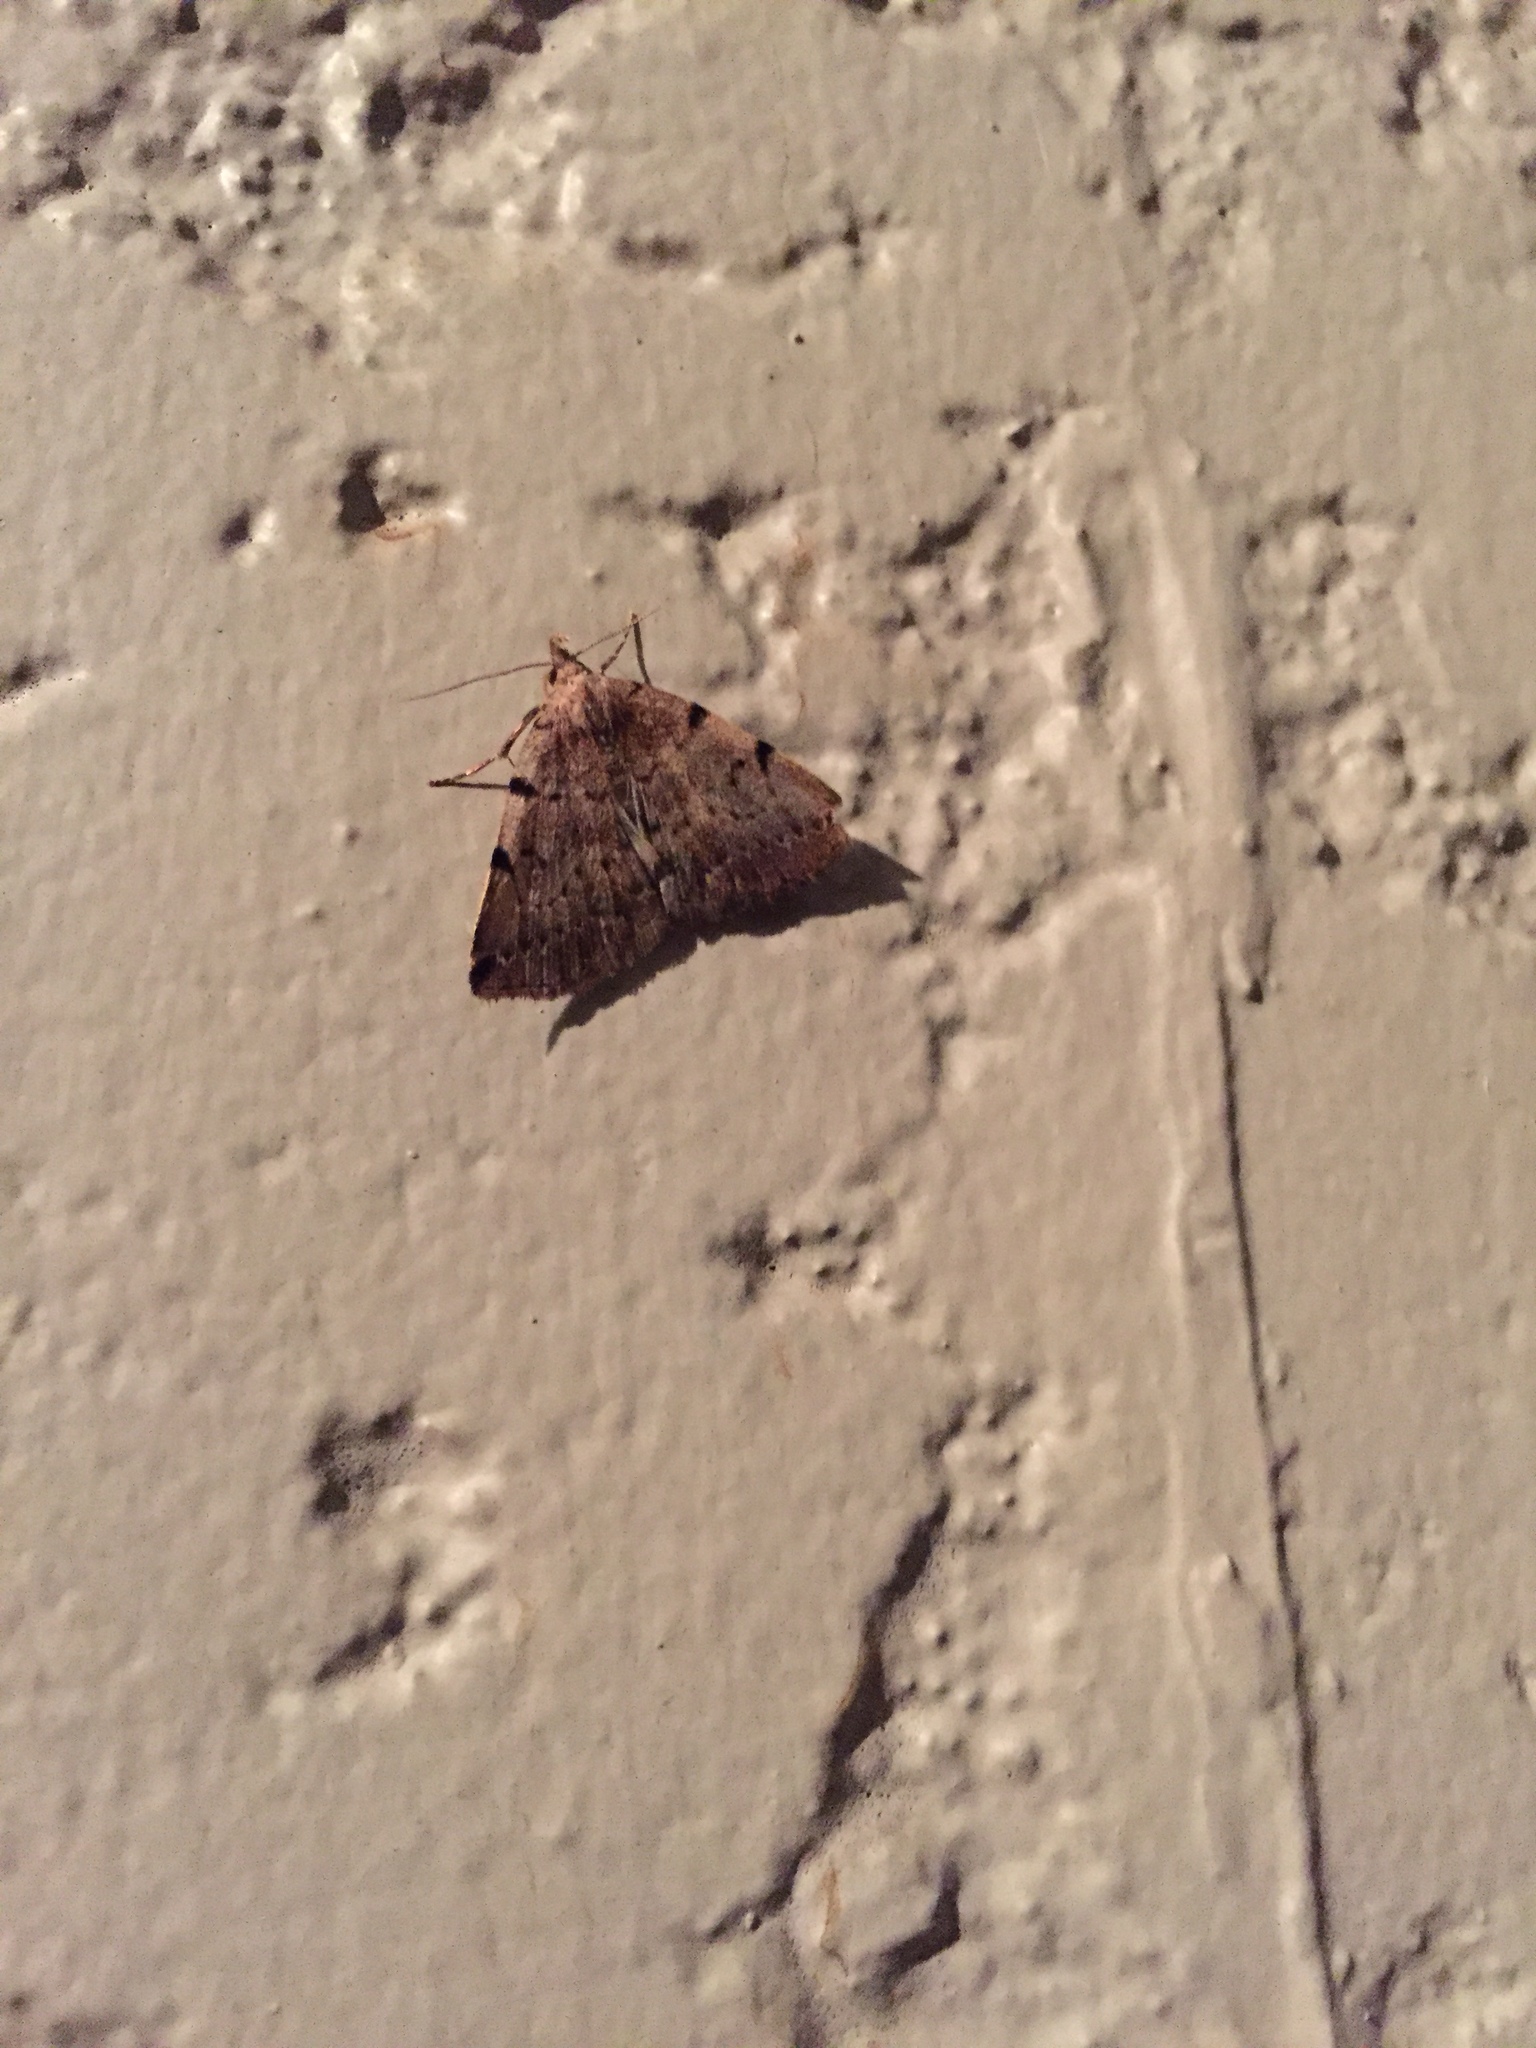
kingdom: Animalia
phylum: Arthropoda
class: Insecta
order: Lepidoptera
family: Erebidae
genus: Zanclognatha
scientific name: Zanclognatha lituralis
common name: Lettered fan-foot
